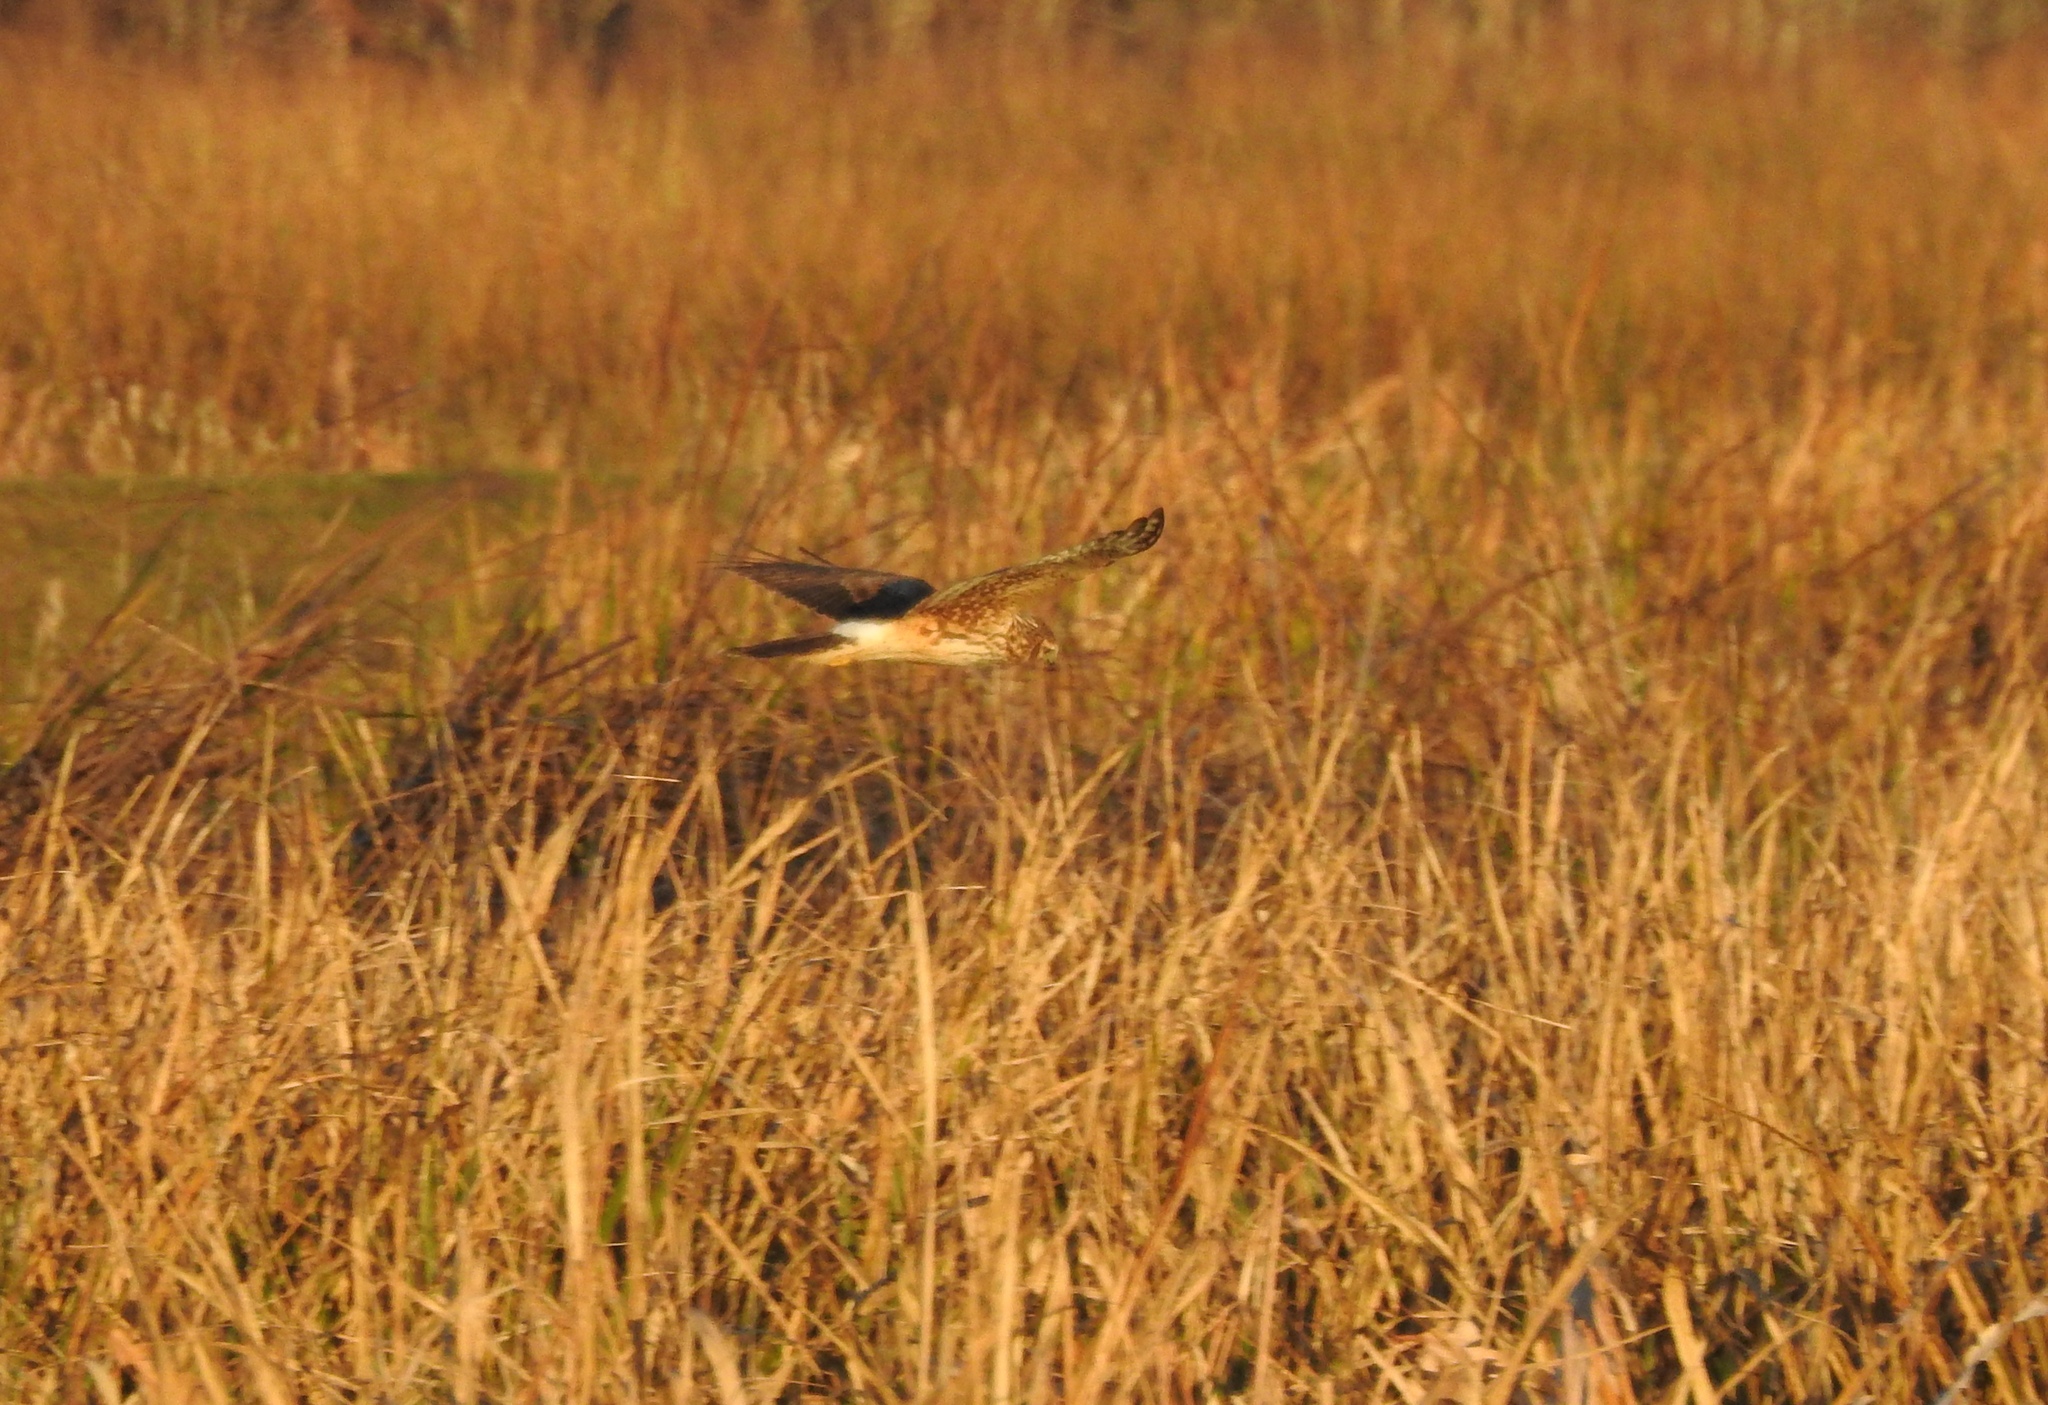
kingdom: Animalia
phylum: Chordata
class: Aves
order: Accipitriformes
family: Accipitridae
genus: Circus
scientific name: Circus cyaneus
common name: Hen harrier
